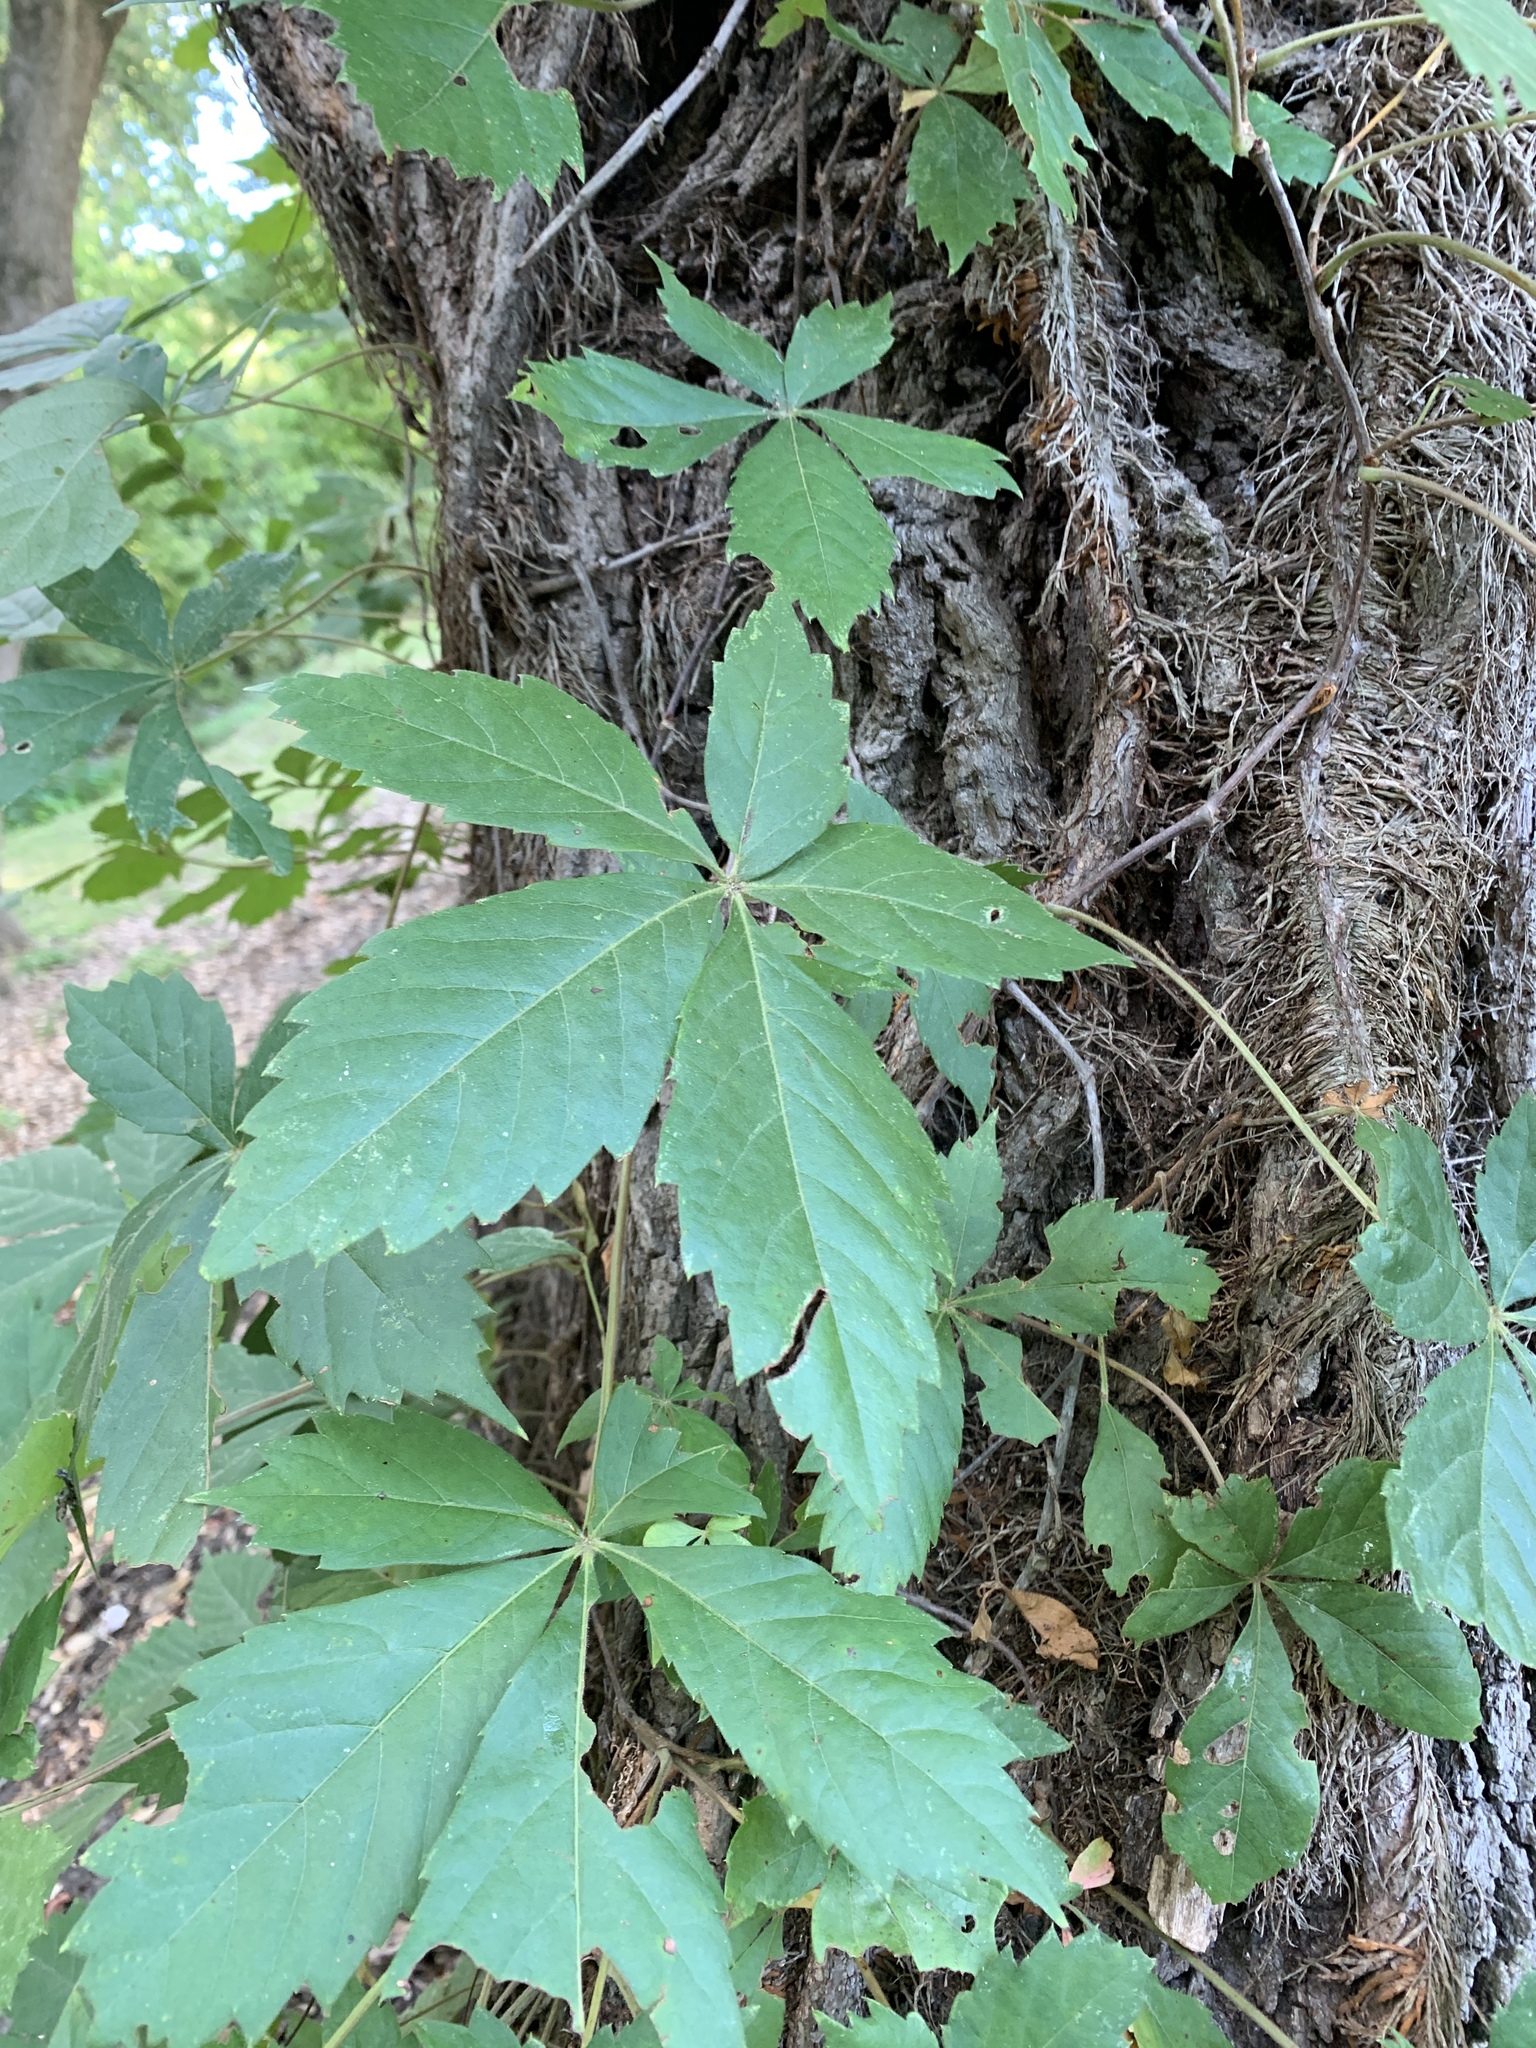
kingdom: Plantae
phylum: Tracheophyta
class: Magnoliopsida
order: Vitales
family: Vitaceae
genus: Parthenocissus
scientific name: Parthenocissus quinquefolia
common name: Virginia-creeper
